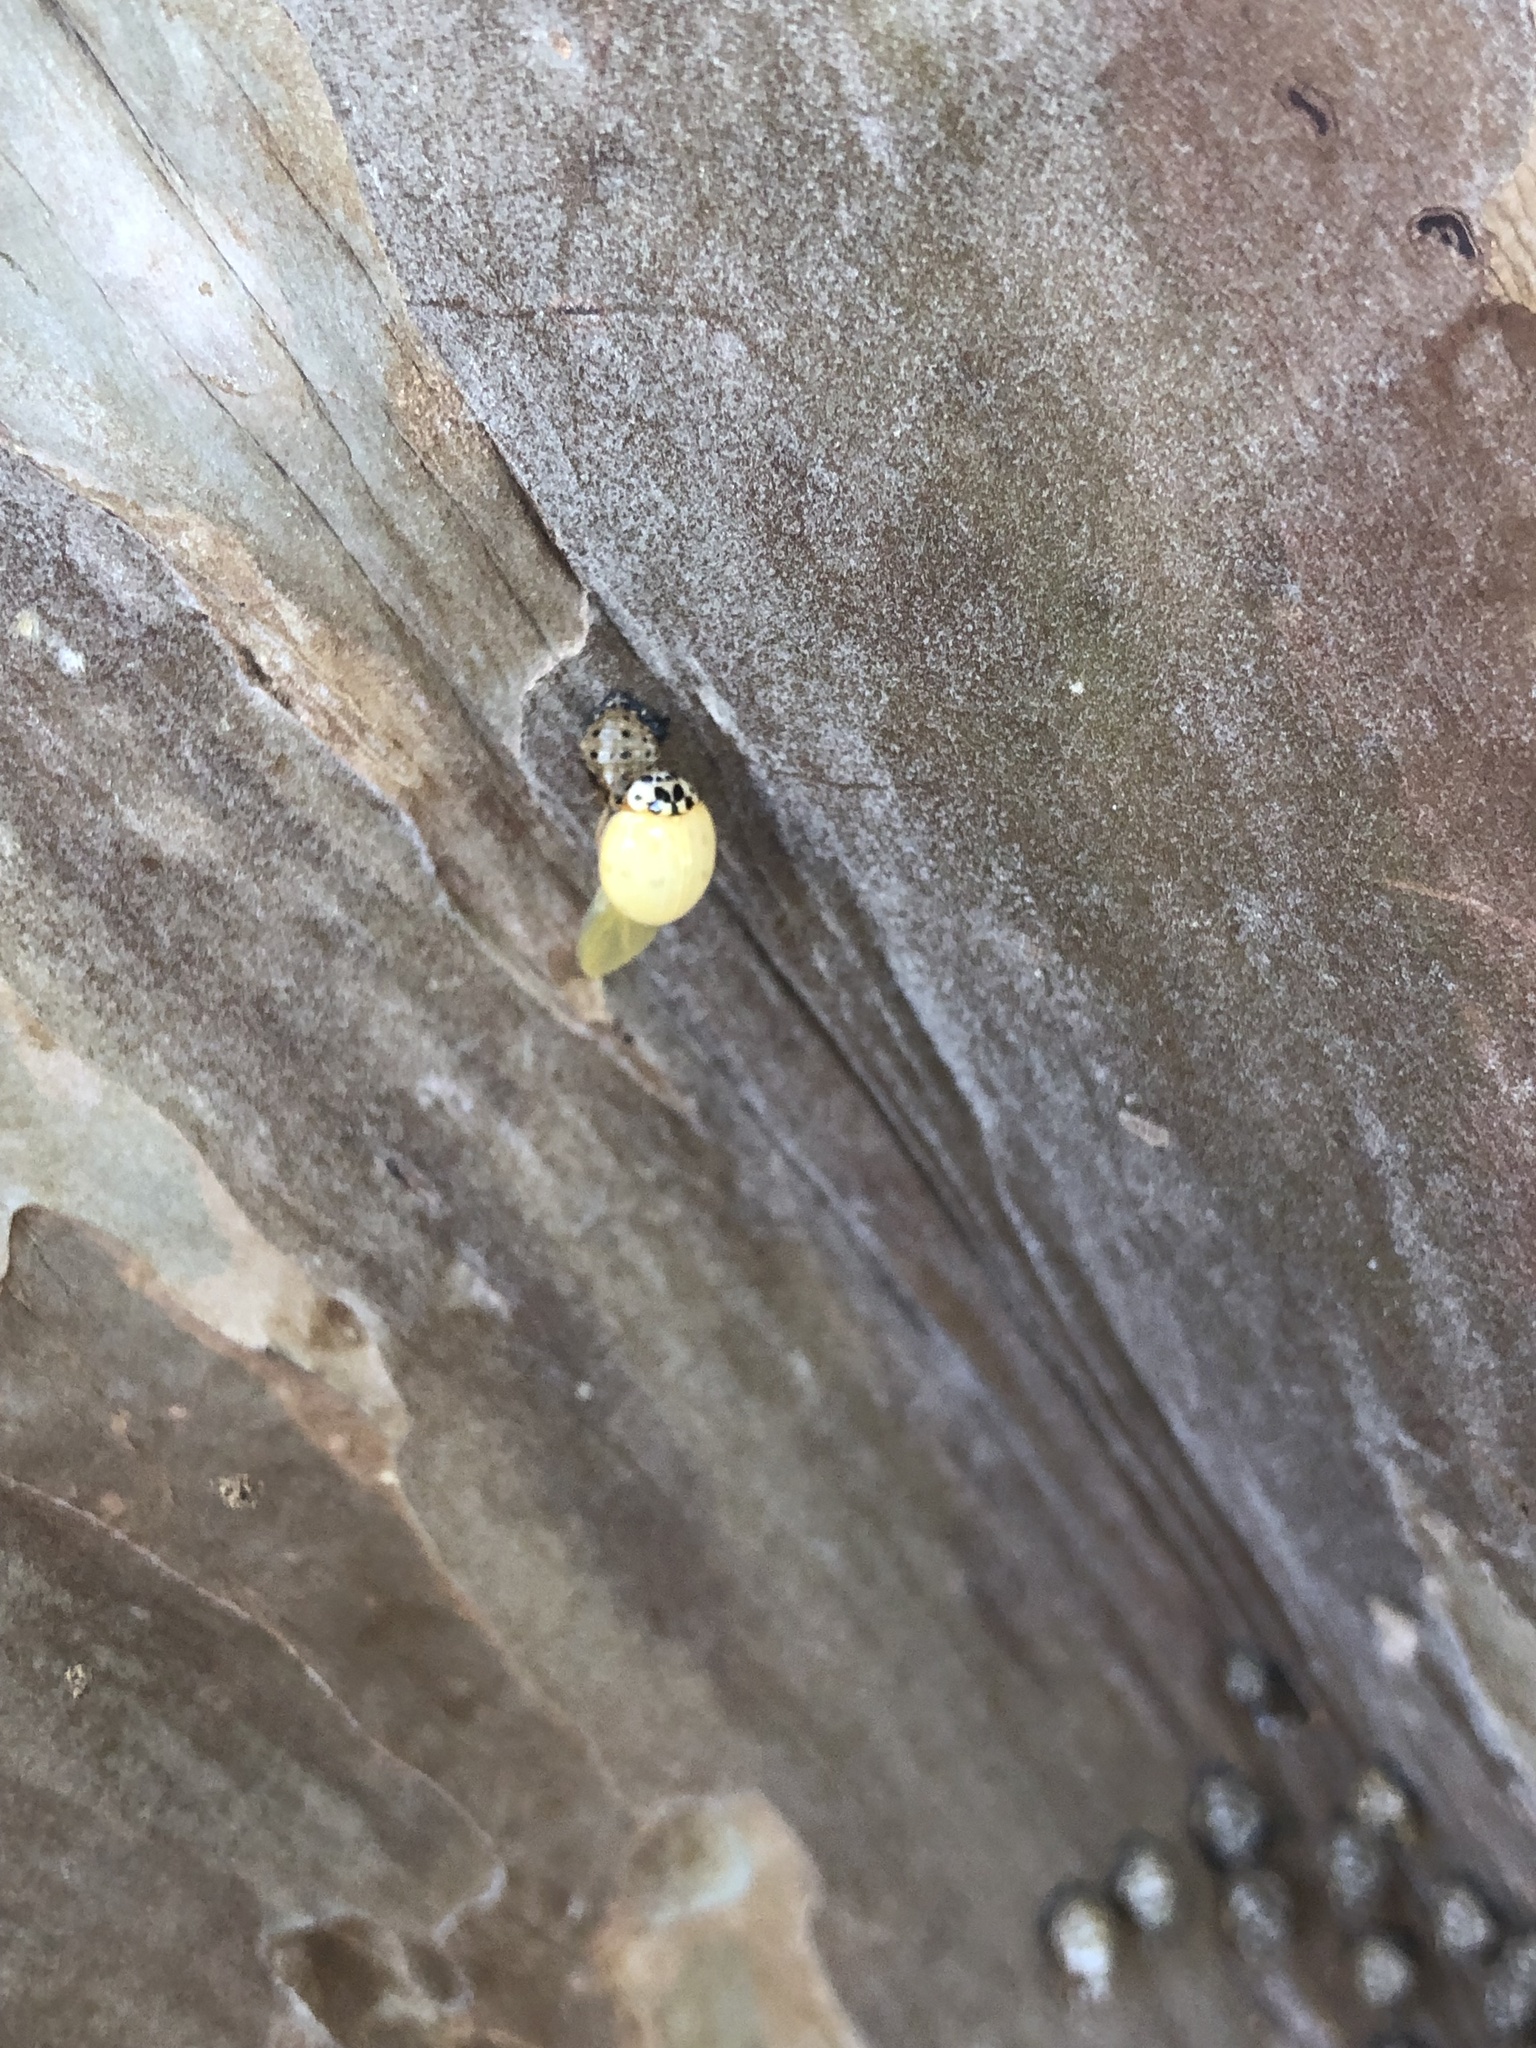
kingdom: Animalia
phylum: Arthropoda
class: Insecta
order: Coleoptera
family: Coccinellidae
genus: Olla
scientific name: Olla v-nigrum
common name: Ashy gray lady beetle
